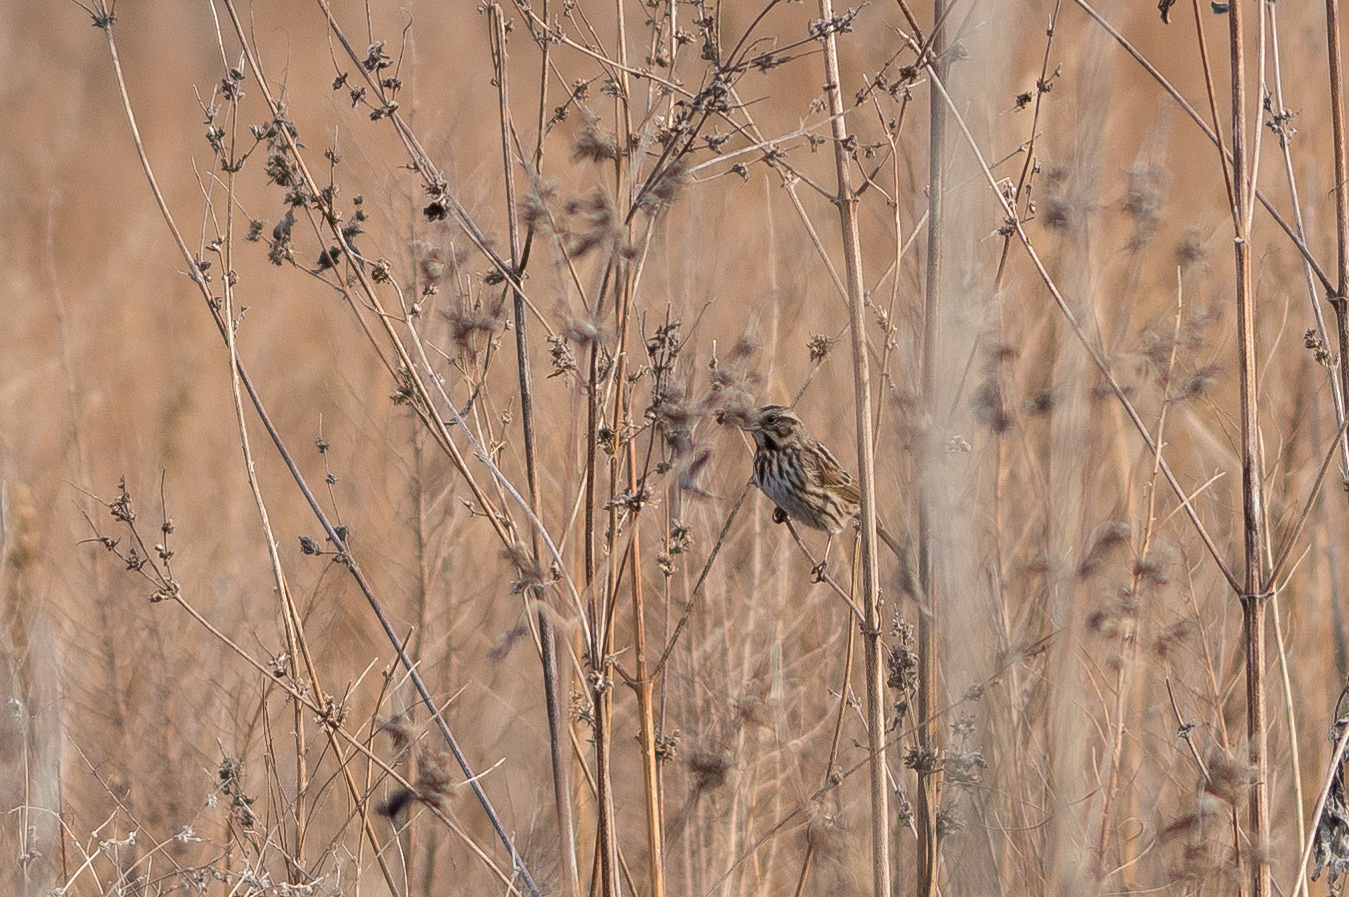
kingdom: Animalia
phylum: Chordata
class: Aves
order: Passeriformes
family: Passerellidae
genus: Melospiza
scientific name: Melospiza melodia
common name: Song sparrow
